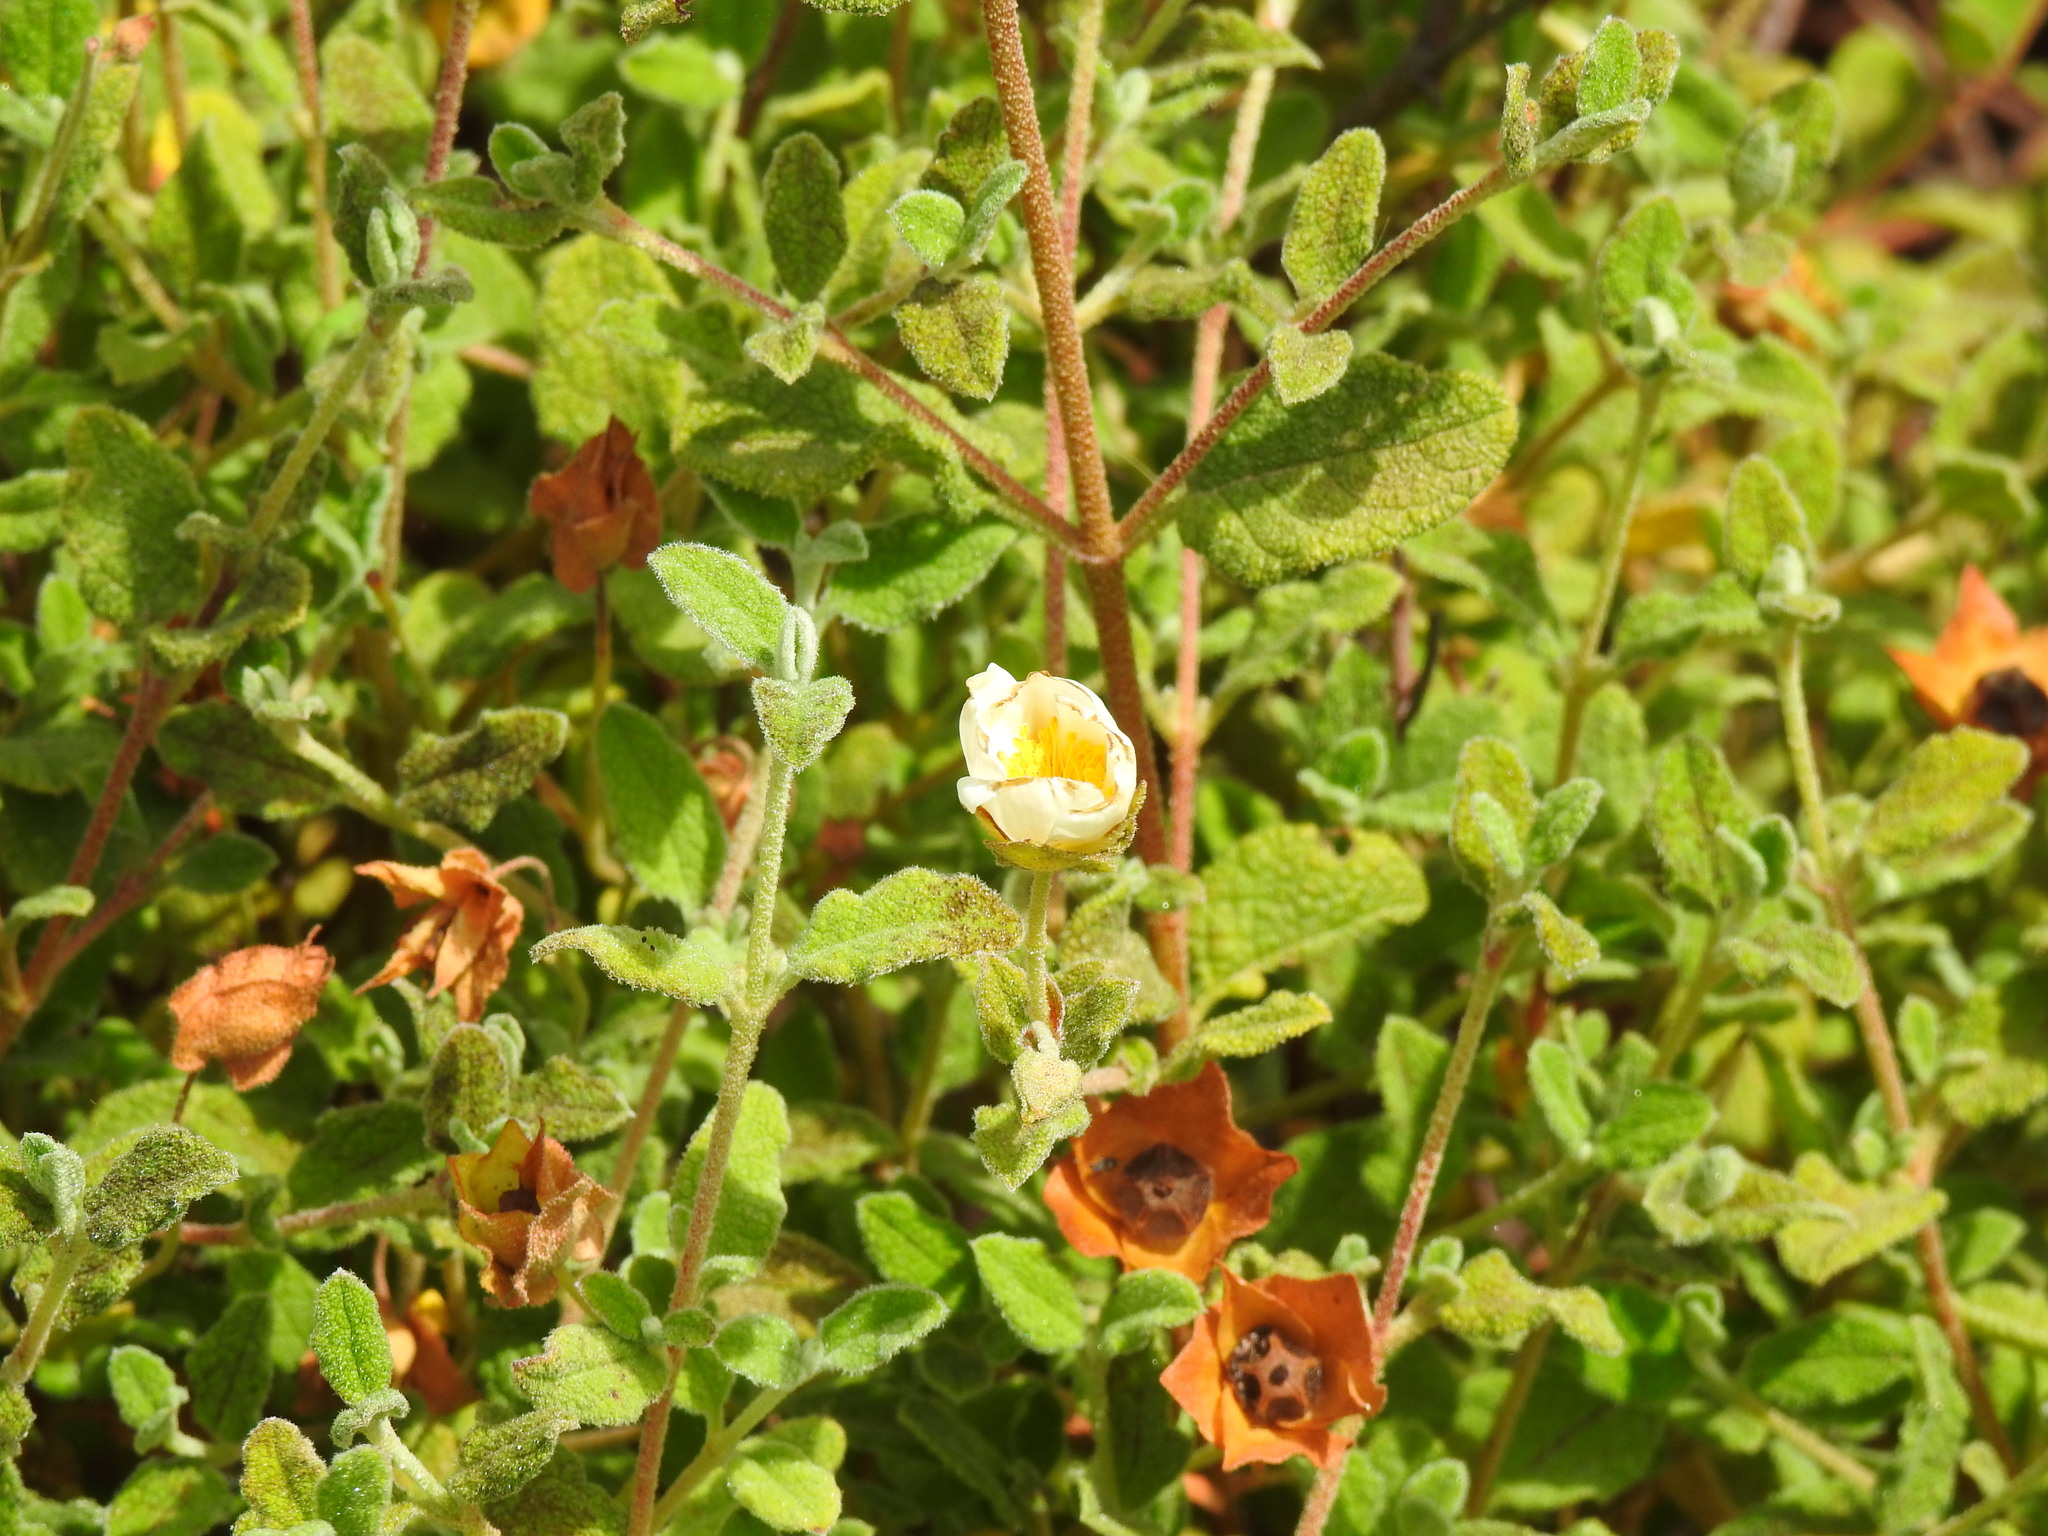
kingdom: Plantae
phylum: Tracheophyta
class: Magnoliopsida
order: Malvales
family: Cistaceae
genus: Cistus
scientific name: Cistus salviifolius
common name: Salvia cistus
